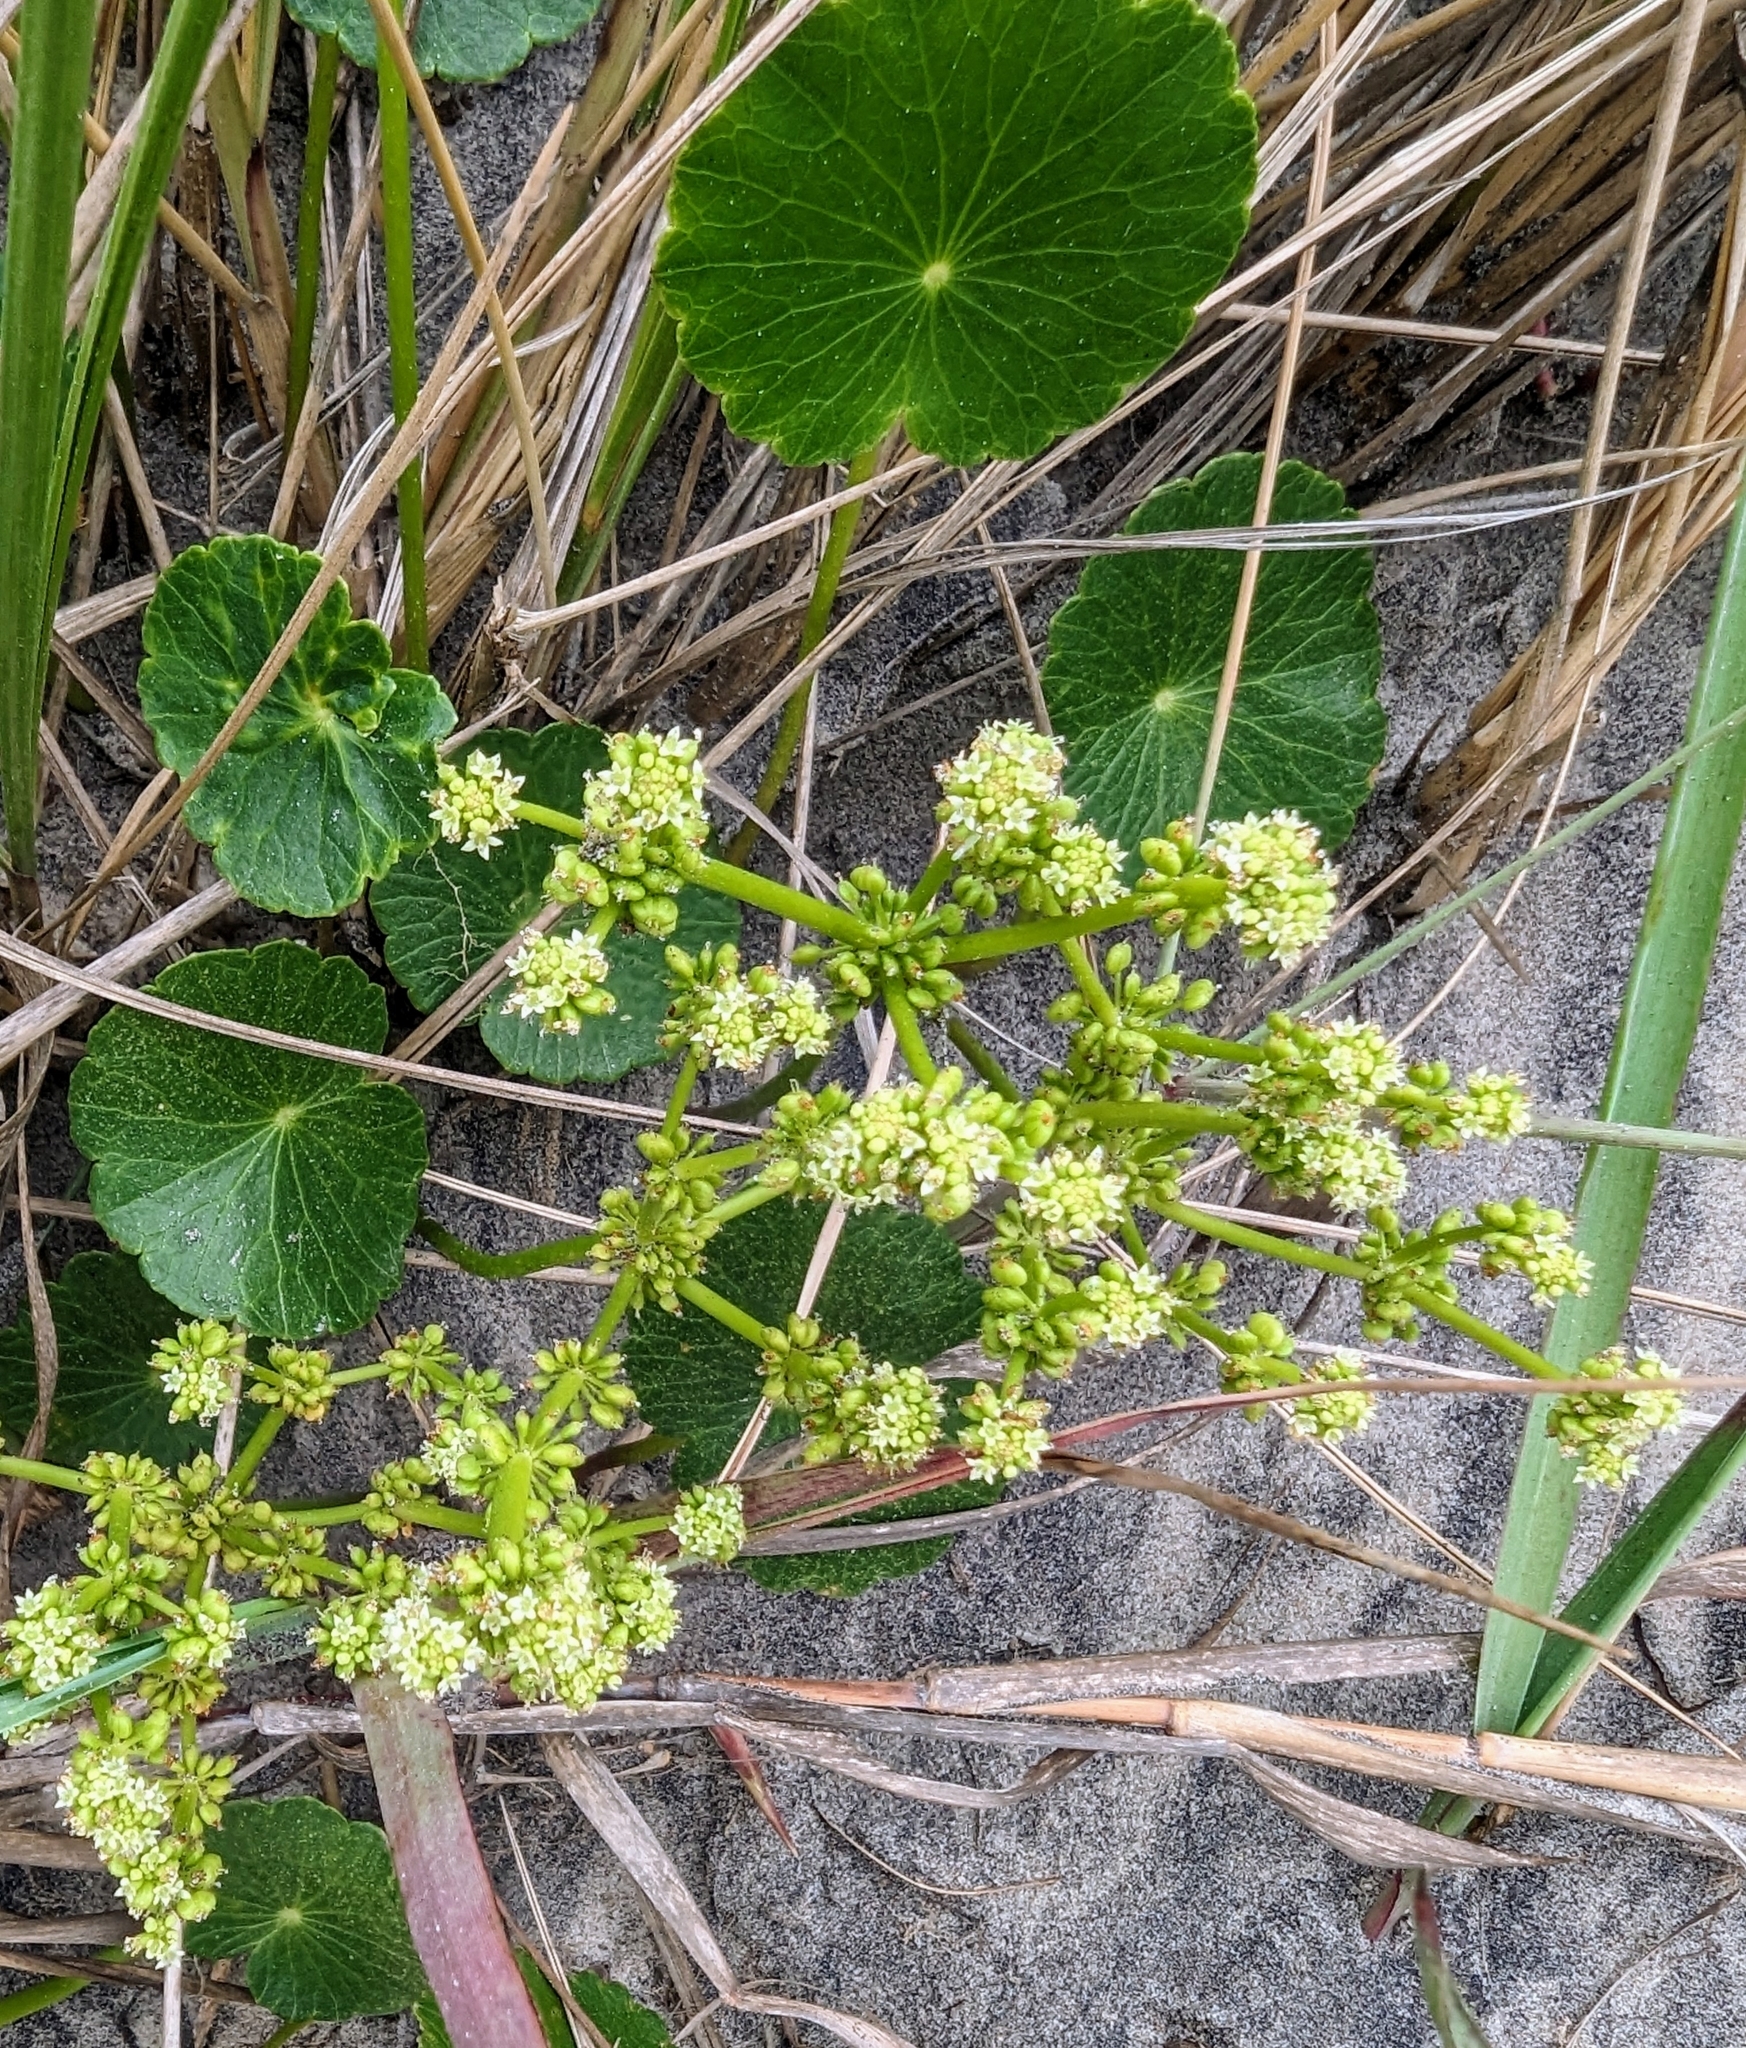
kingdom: Plantae
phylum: Tracheophyta
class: Magnoliopsida
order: Apiales
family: Araliaceae
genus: Hydrocotyle
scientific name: Hydrocotyle bonariensis
